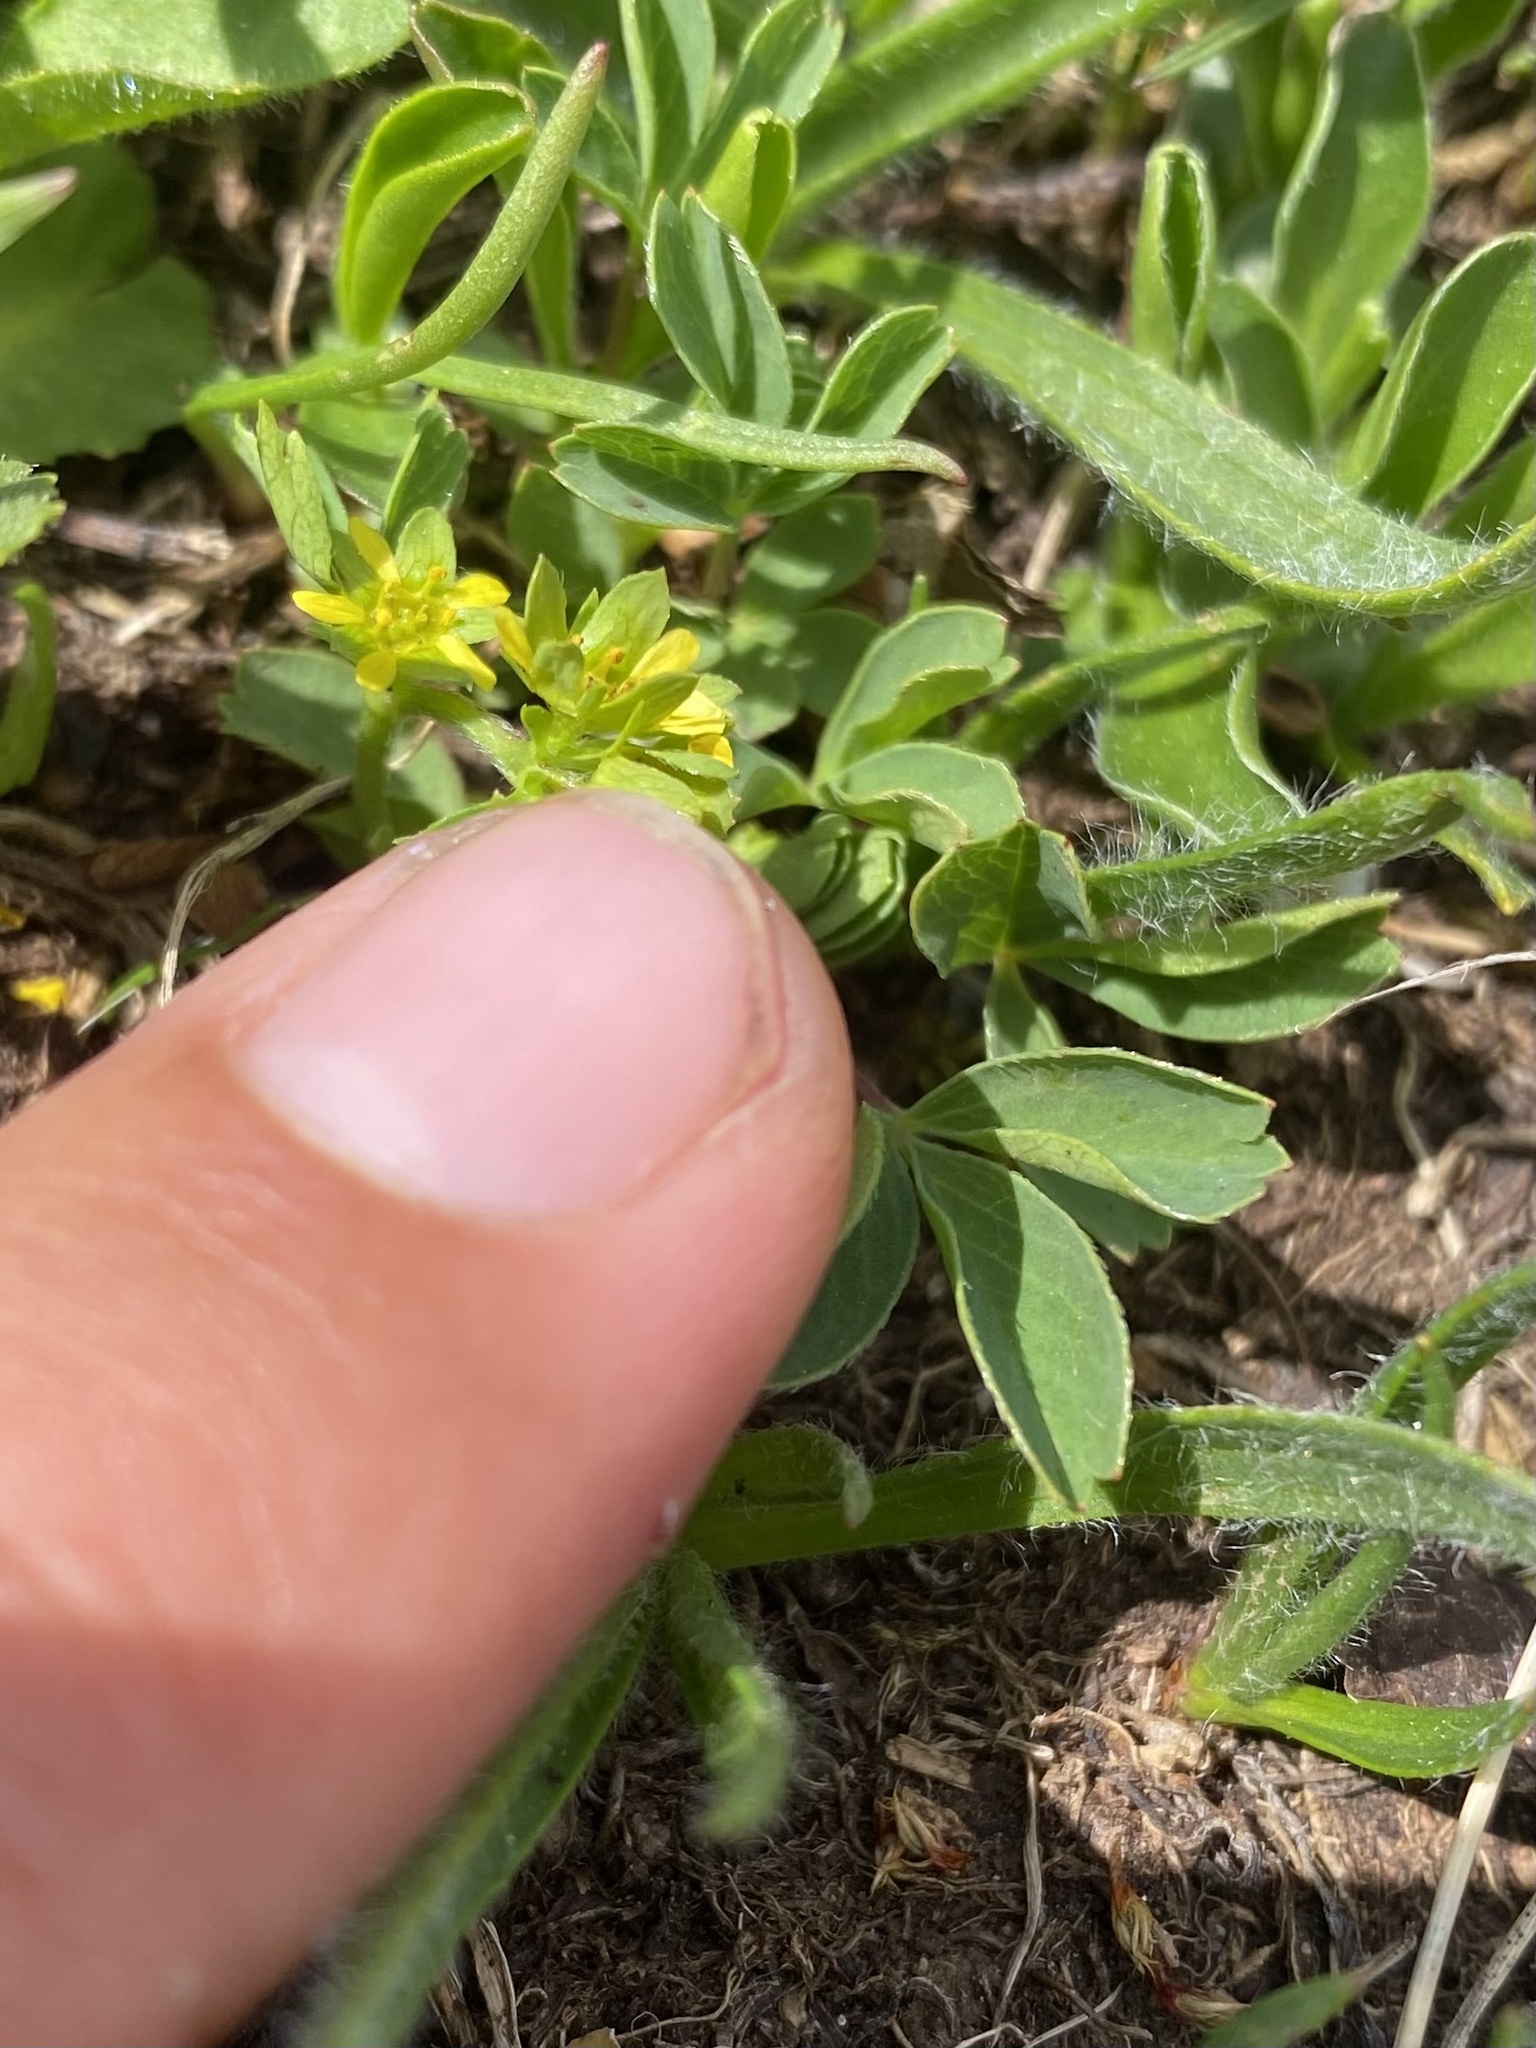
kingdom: Plantae
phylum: Tracheophyta
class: Magnoliopsida
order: Rosales
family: Rosaceae
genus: Sibbaldia
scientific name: Sibbaldia parviflora
